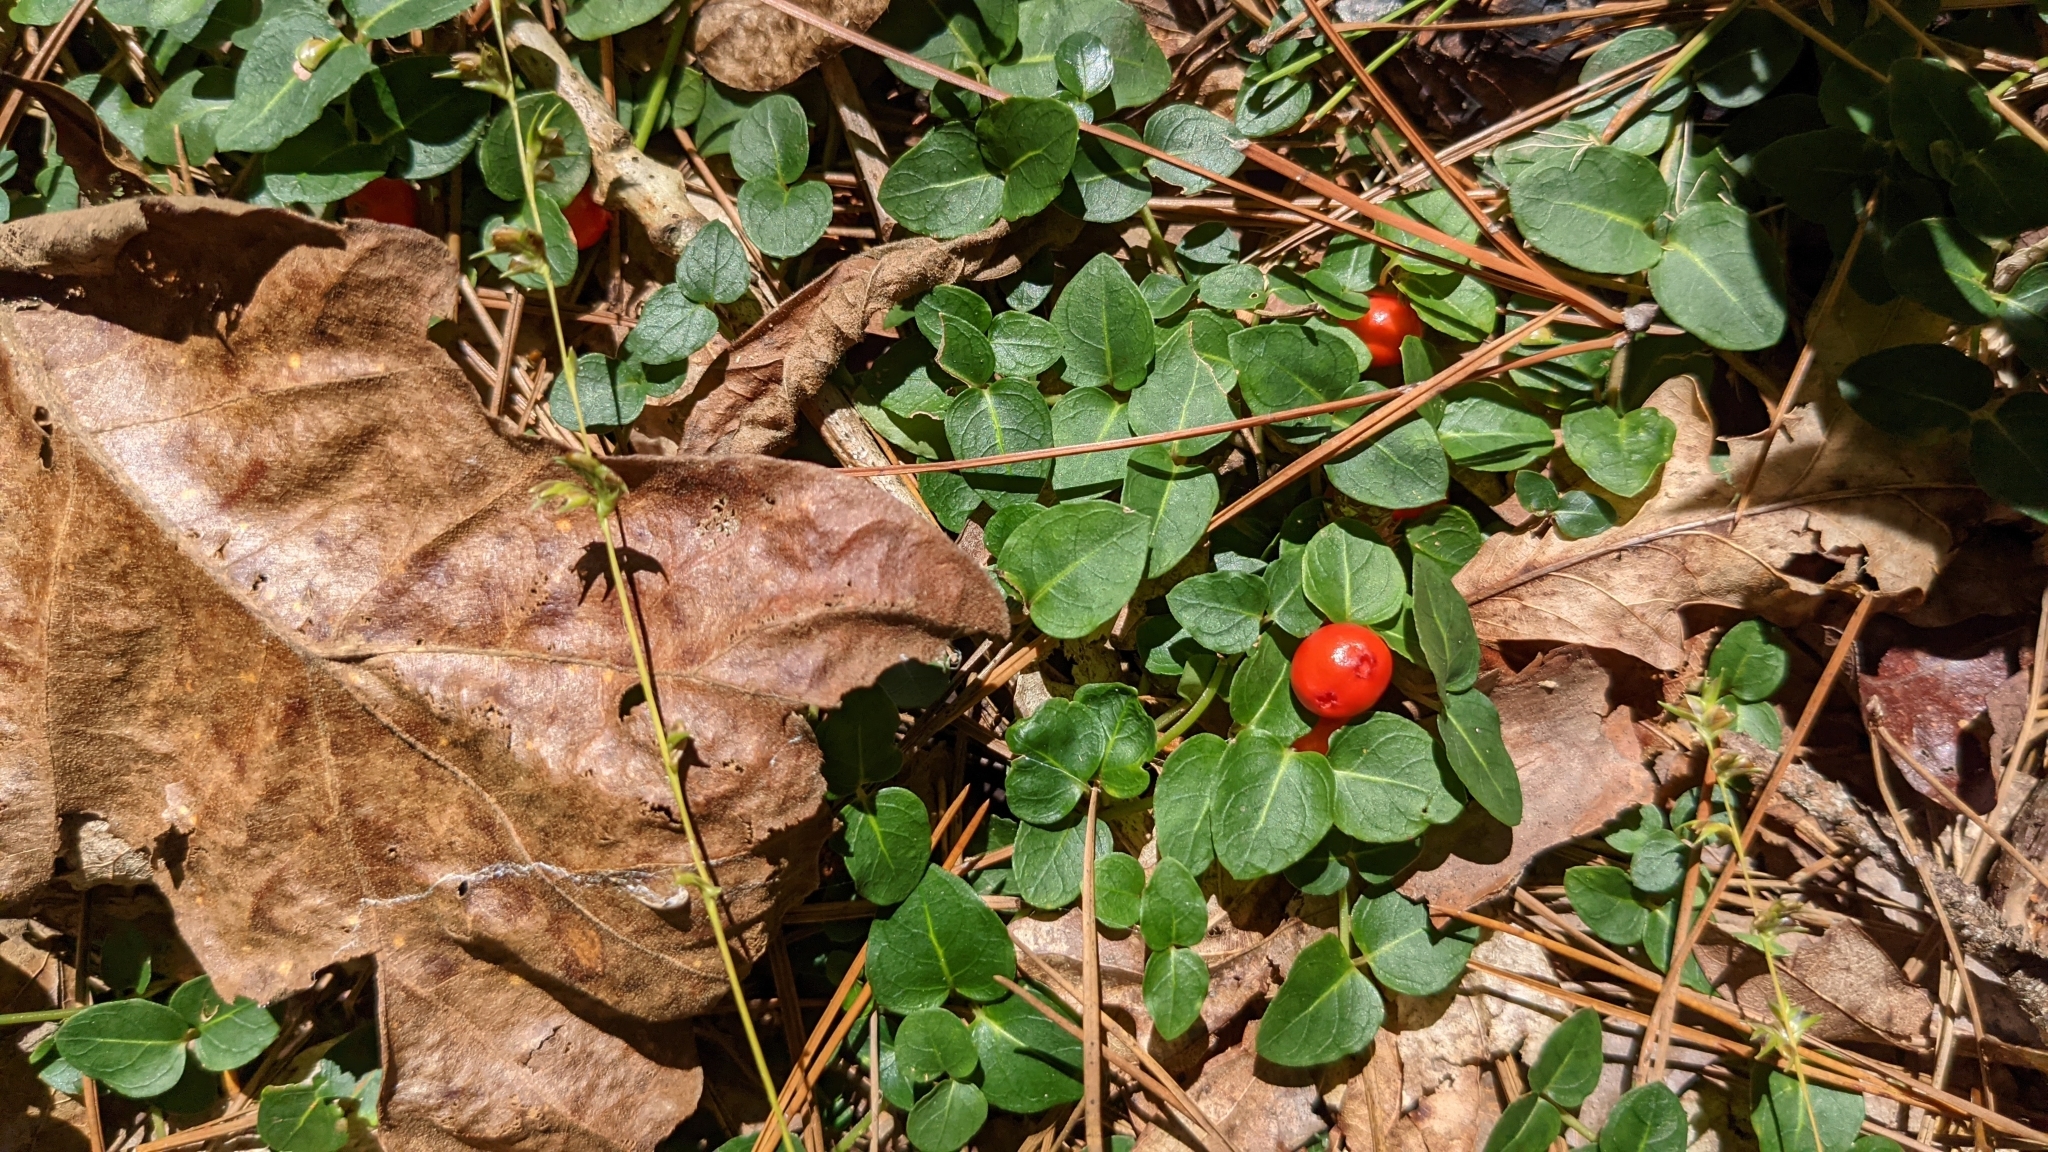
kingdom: Plantae
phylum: Tracheophyta
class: Magnoliopsida
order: Gentianales
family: Rubiaceae
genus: Mitchella
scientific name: Mitchella repens
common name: Partridge-berry
